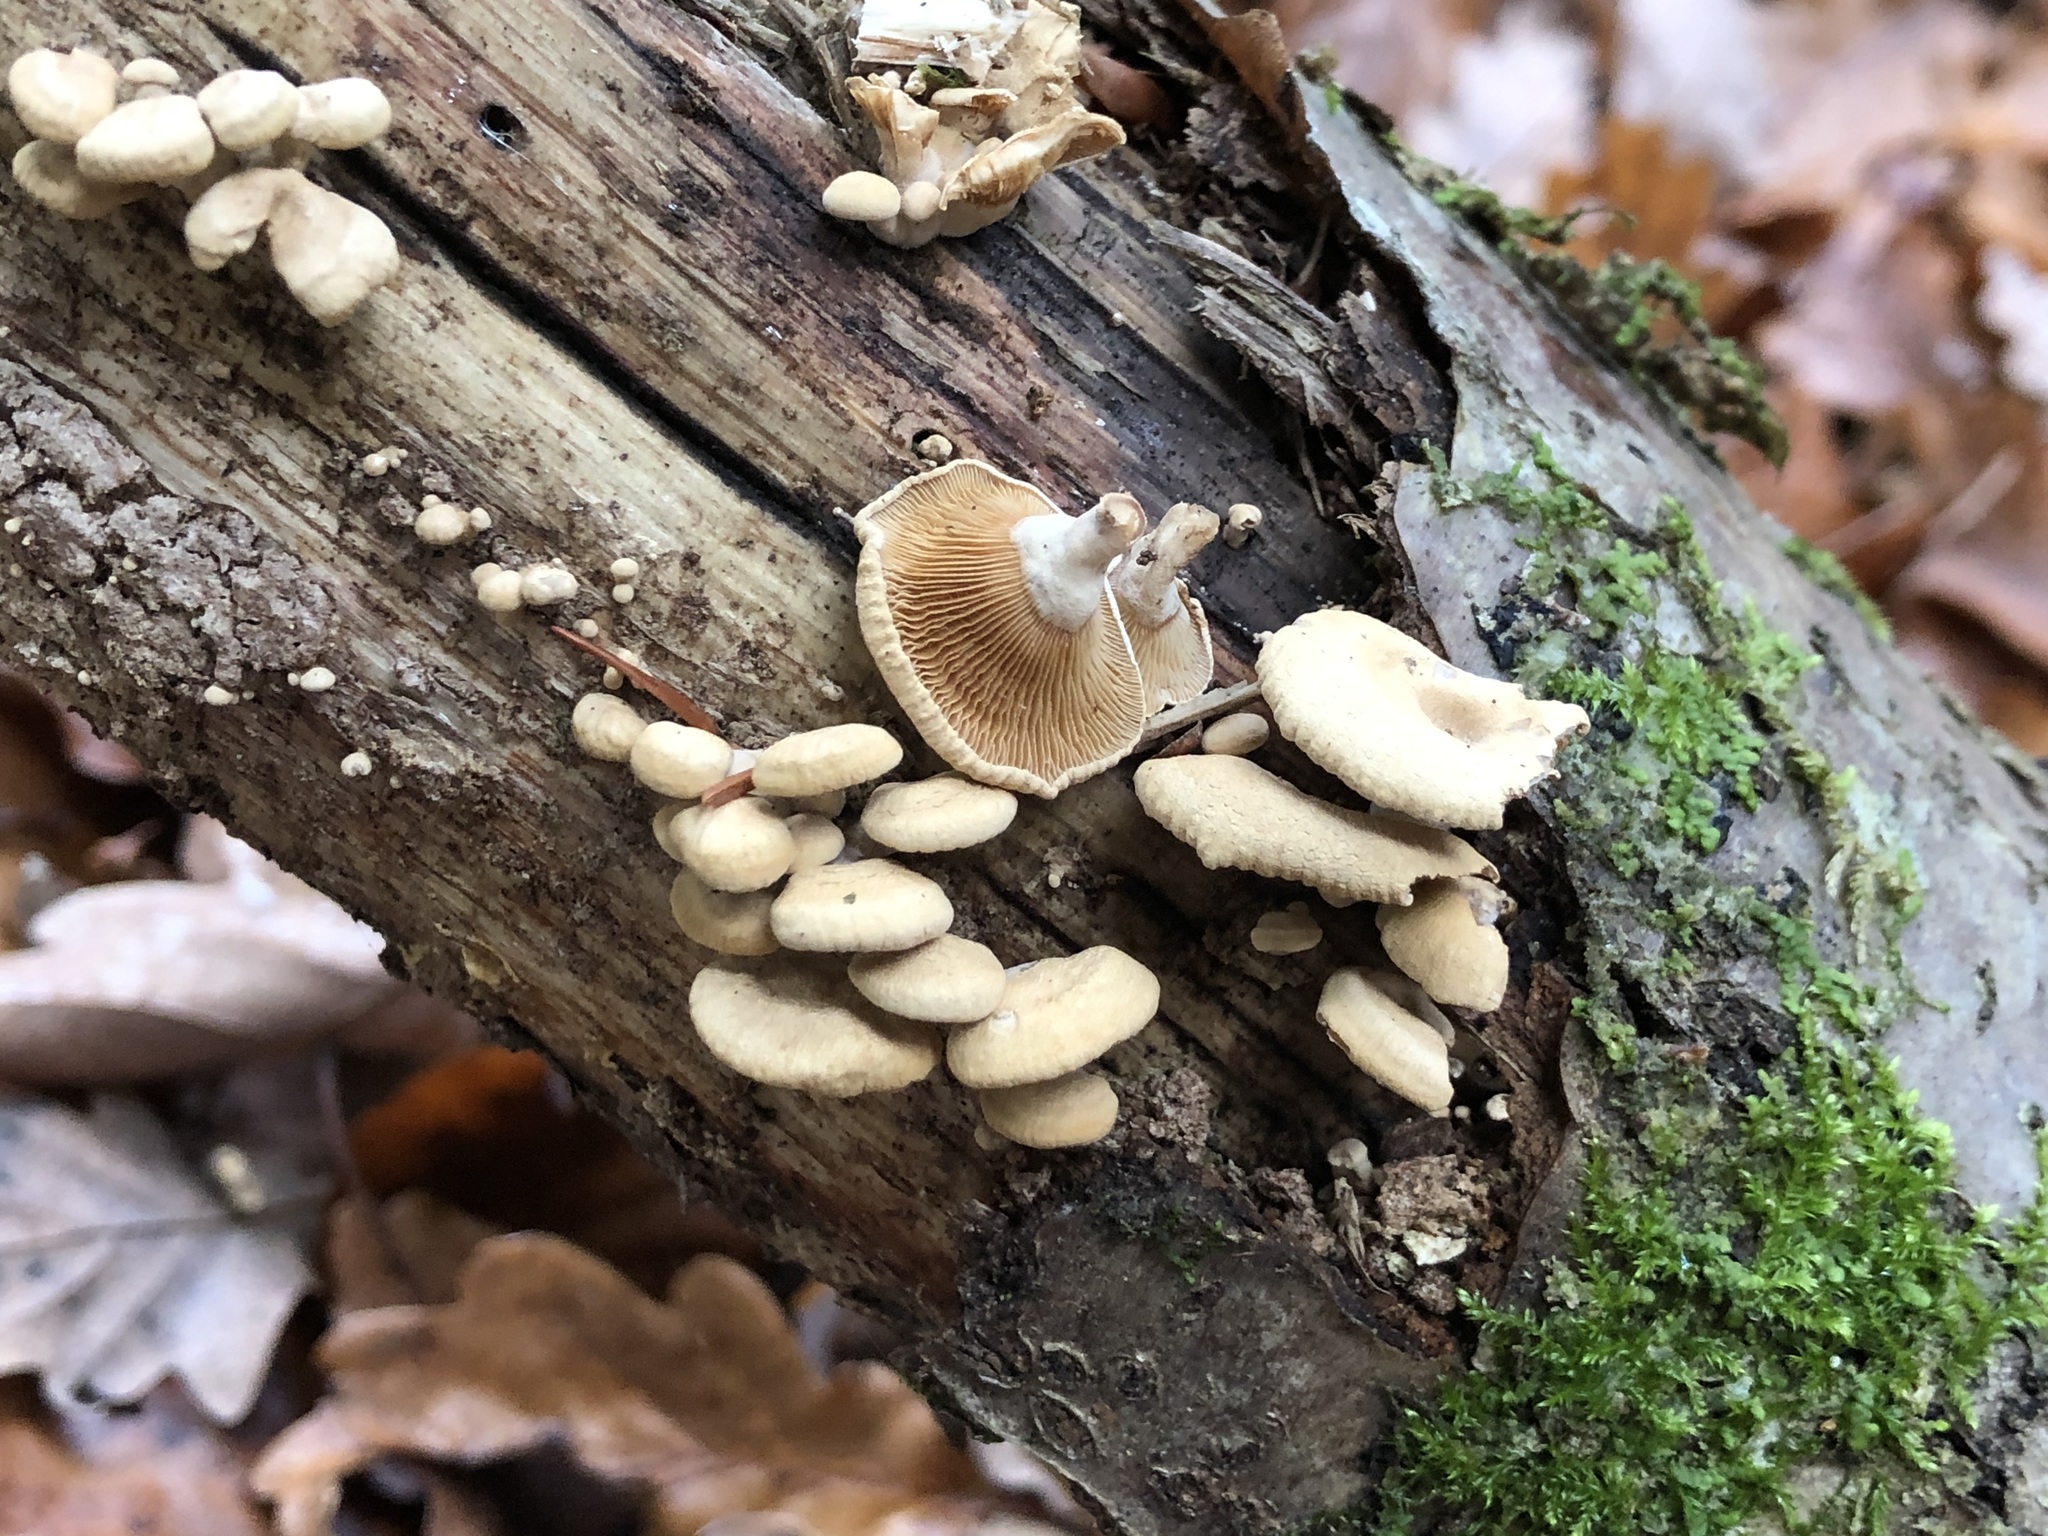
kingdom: Fungi
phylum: Basidiomycota
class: Agaricomycetes
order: Agaricales
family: Mycenaceae
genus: Panellus
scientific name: Panellus stipticus
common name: Bitter oysterling
